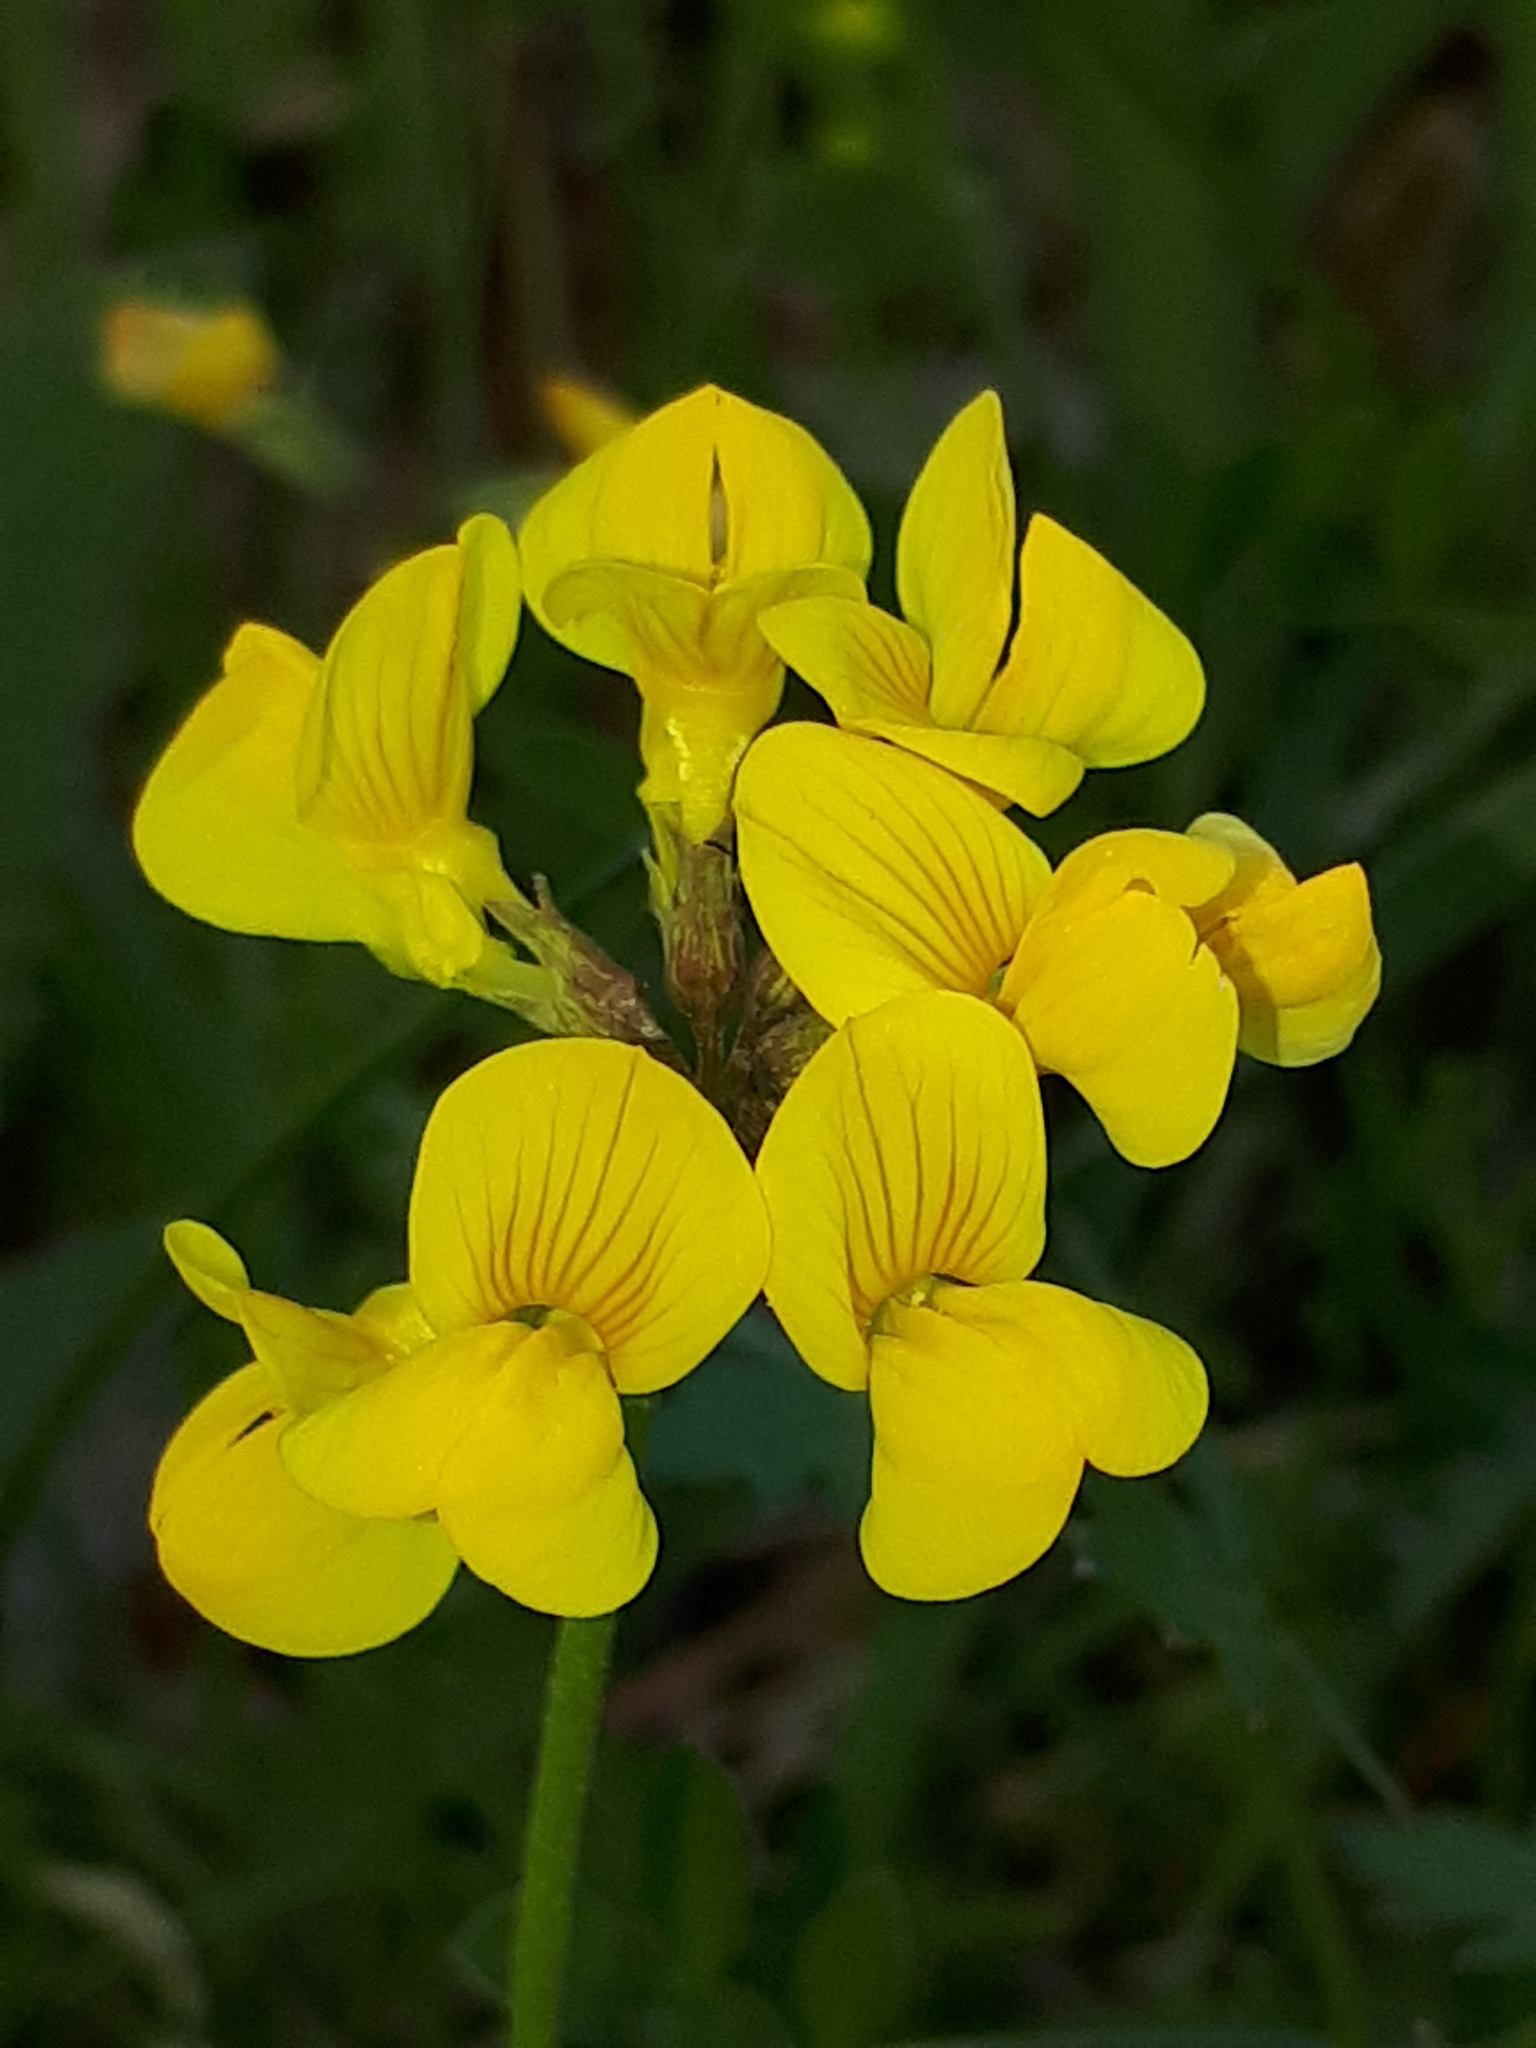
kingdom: Plantae
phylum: Tracheophyta
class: Magnoliopsida
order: Fabales
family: Fabaceae
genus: Hippocrepis
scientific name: Hippocrepis comosa
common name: Horseshoe vetch
